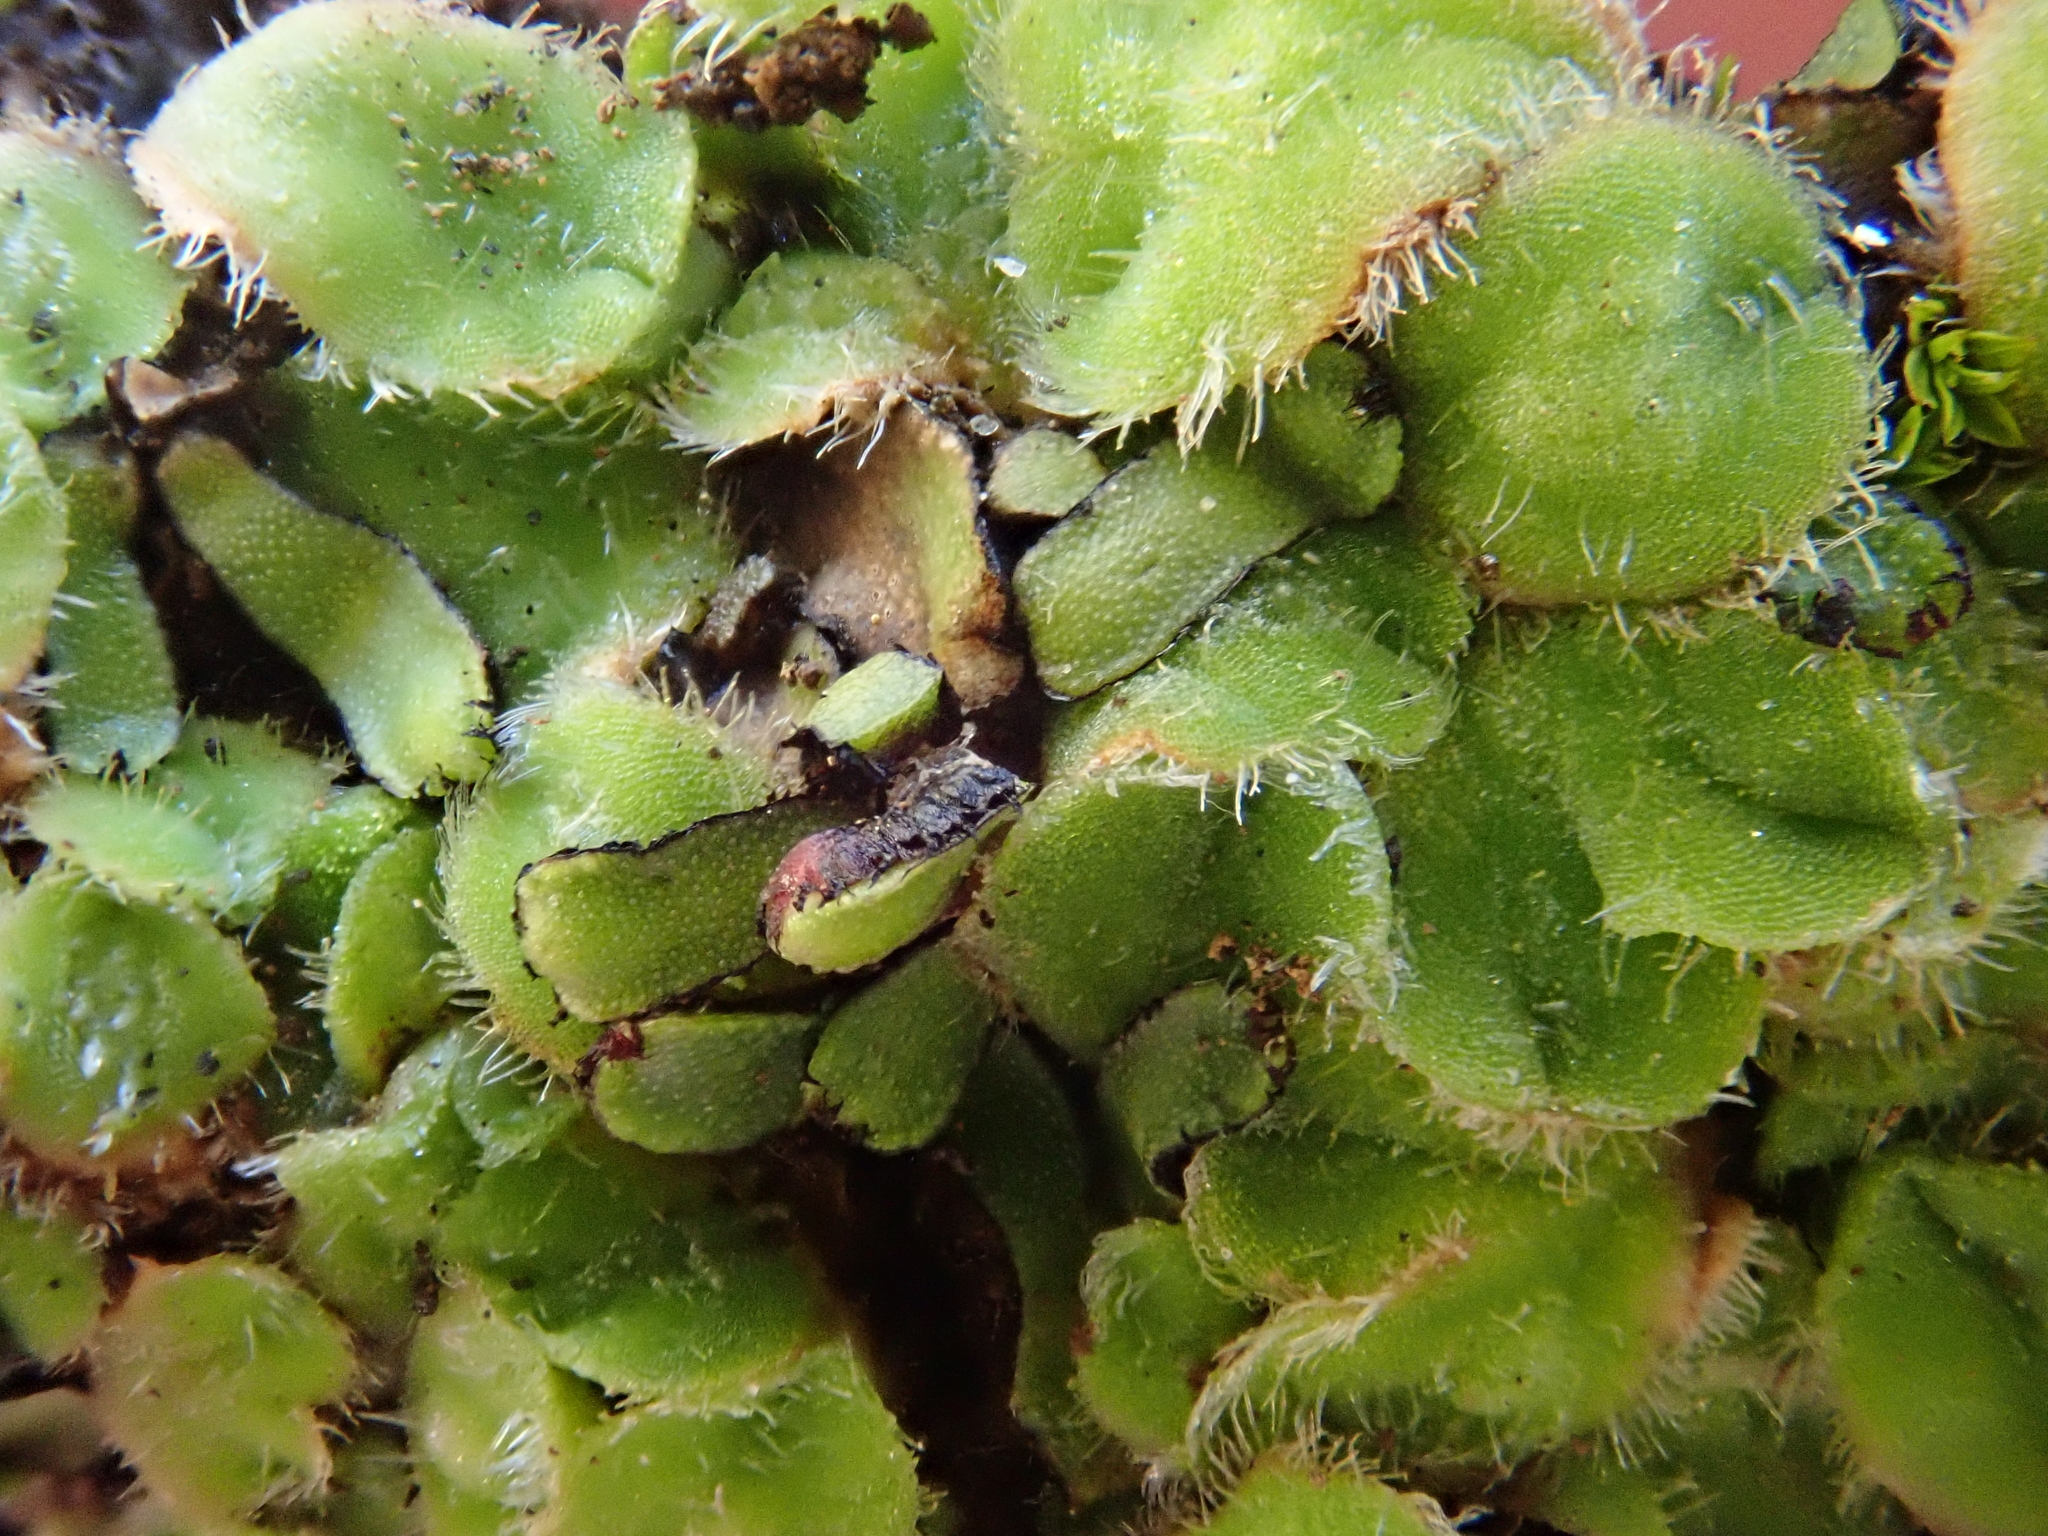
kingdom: Plantae
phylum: Marchantiophyta
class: Marchantiopsida
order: Marchantiales
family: Ricciaceae
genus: Riccia
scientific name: Riccia gougetiana
